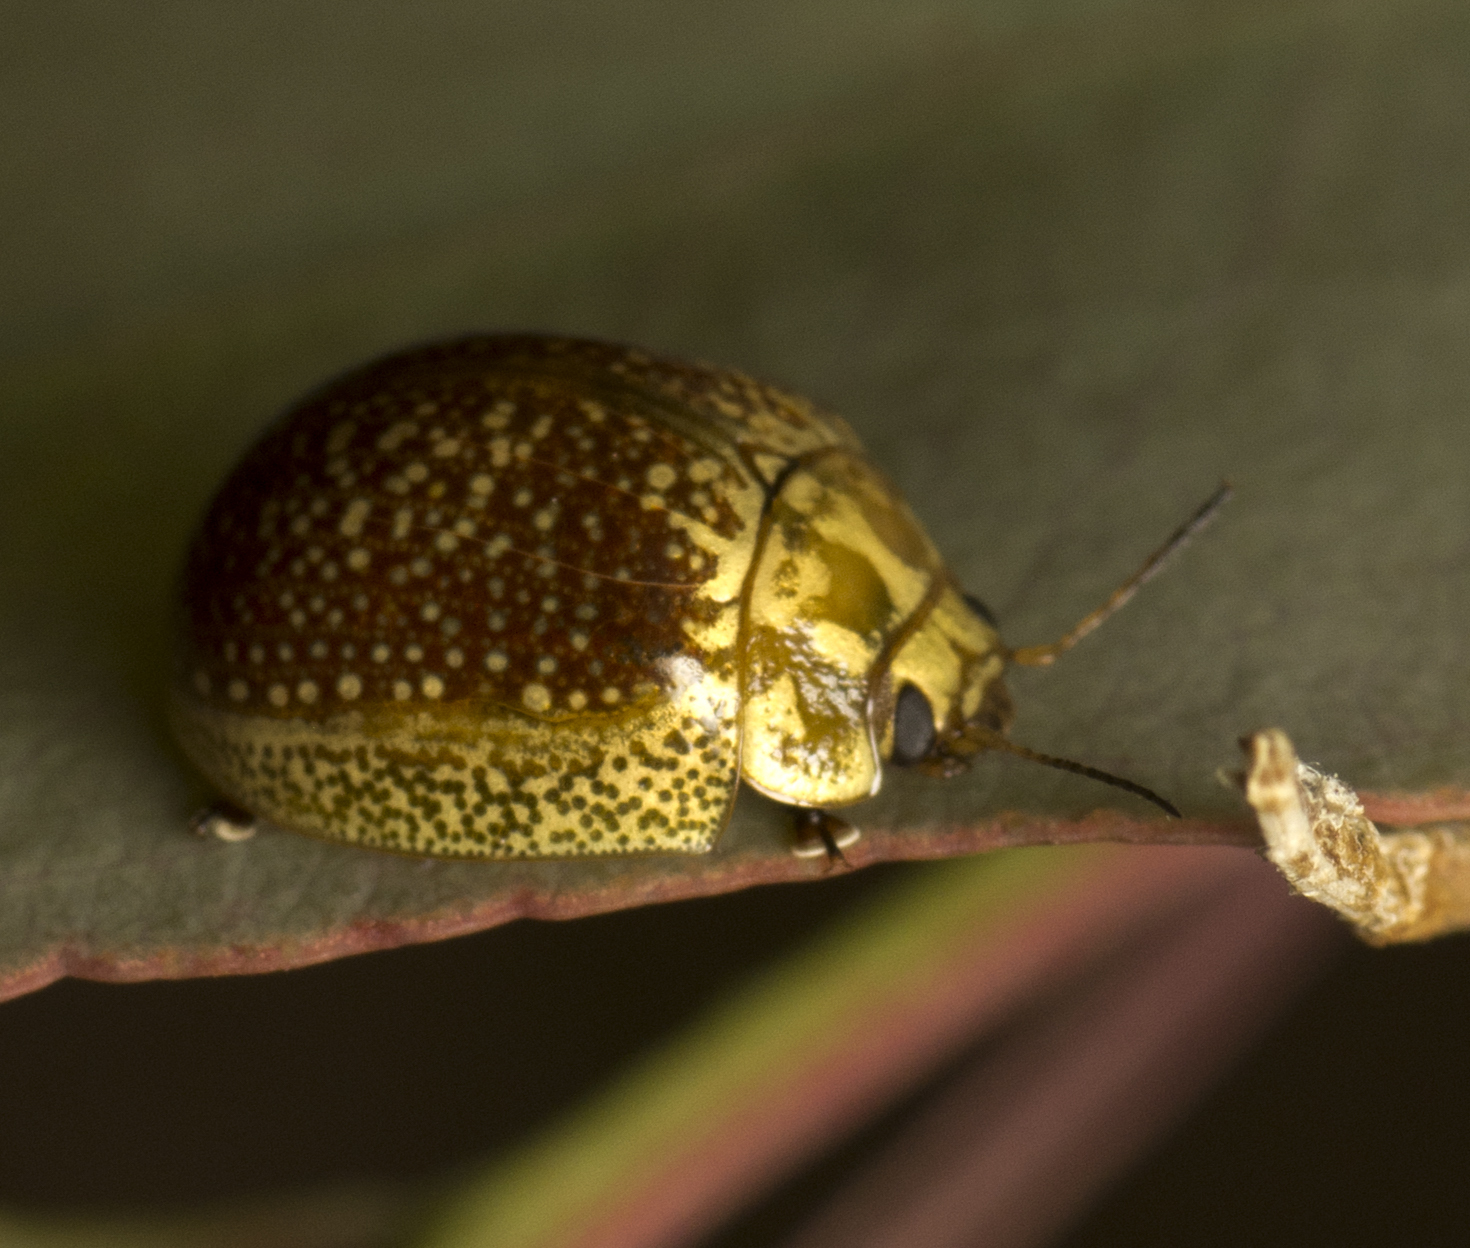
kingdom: Animalia
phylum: Arthropoda
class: Insecta
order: Coleoptera
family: Chrysomelidae
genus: Paropsisterna
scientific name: Paropsisterna cloelia
